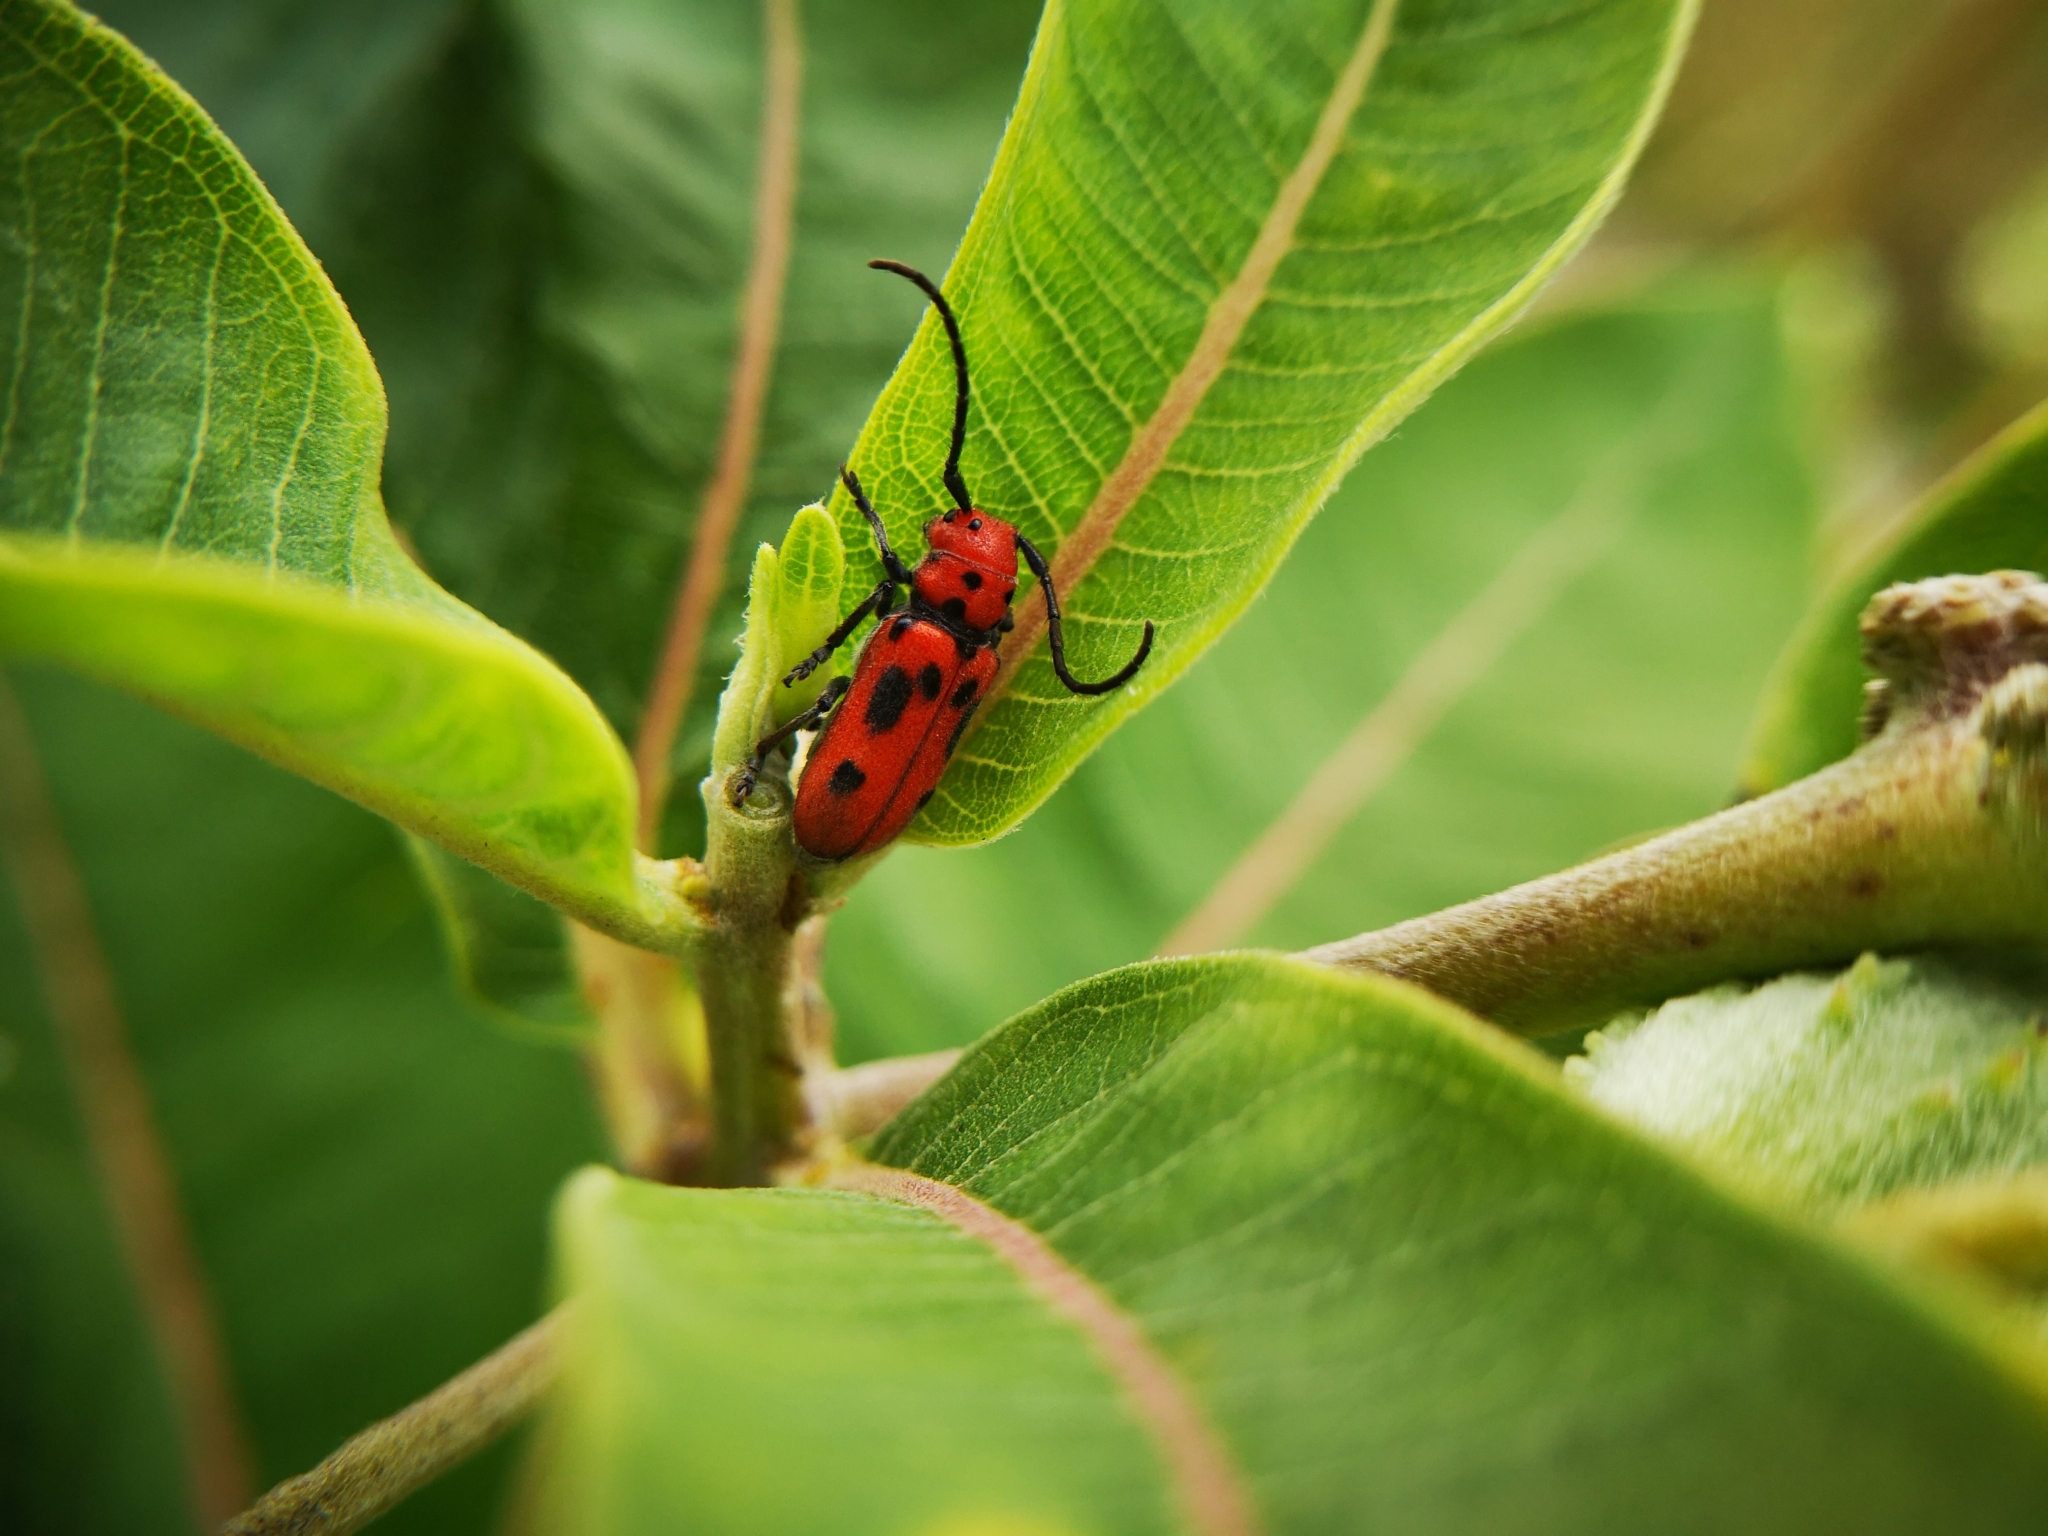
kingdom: Animalia
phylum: Arthropoda
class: Insecta
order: Coleoptera
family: Cerambycidae
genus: Tetraopes
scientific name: Tetraopes tetrophthalmus
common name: Red milkweed beetle
